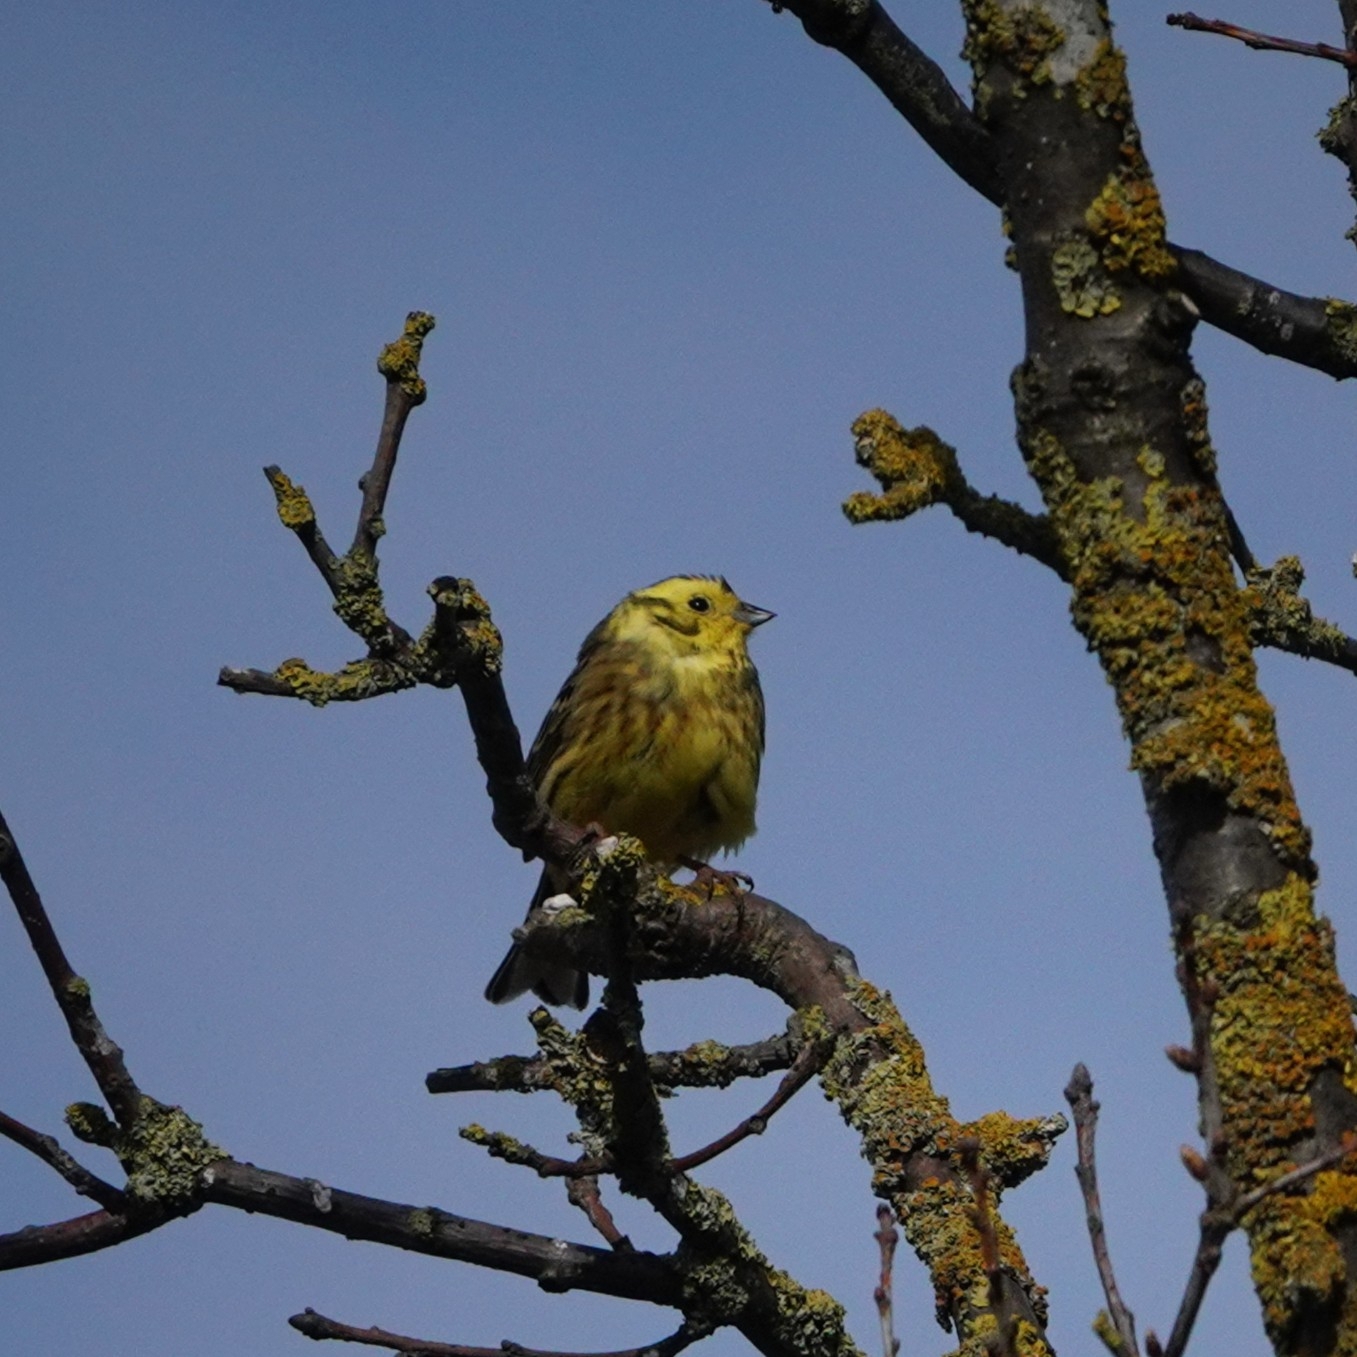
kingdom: Animalia
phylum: Chordata
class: Aves
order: Passeriformes
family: Emberizidae
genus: Emberiza
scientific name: Emberiza citrinella
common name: Yellowhammer
